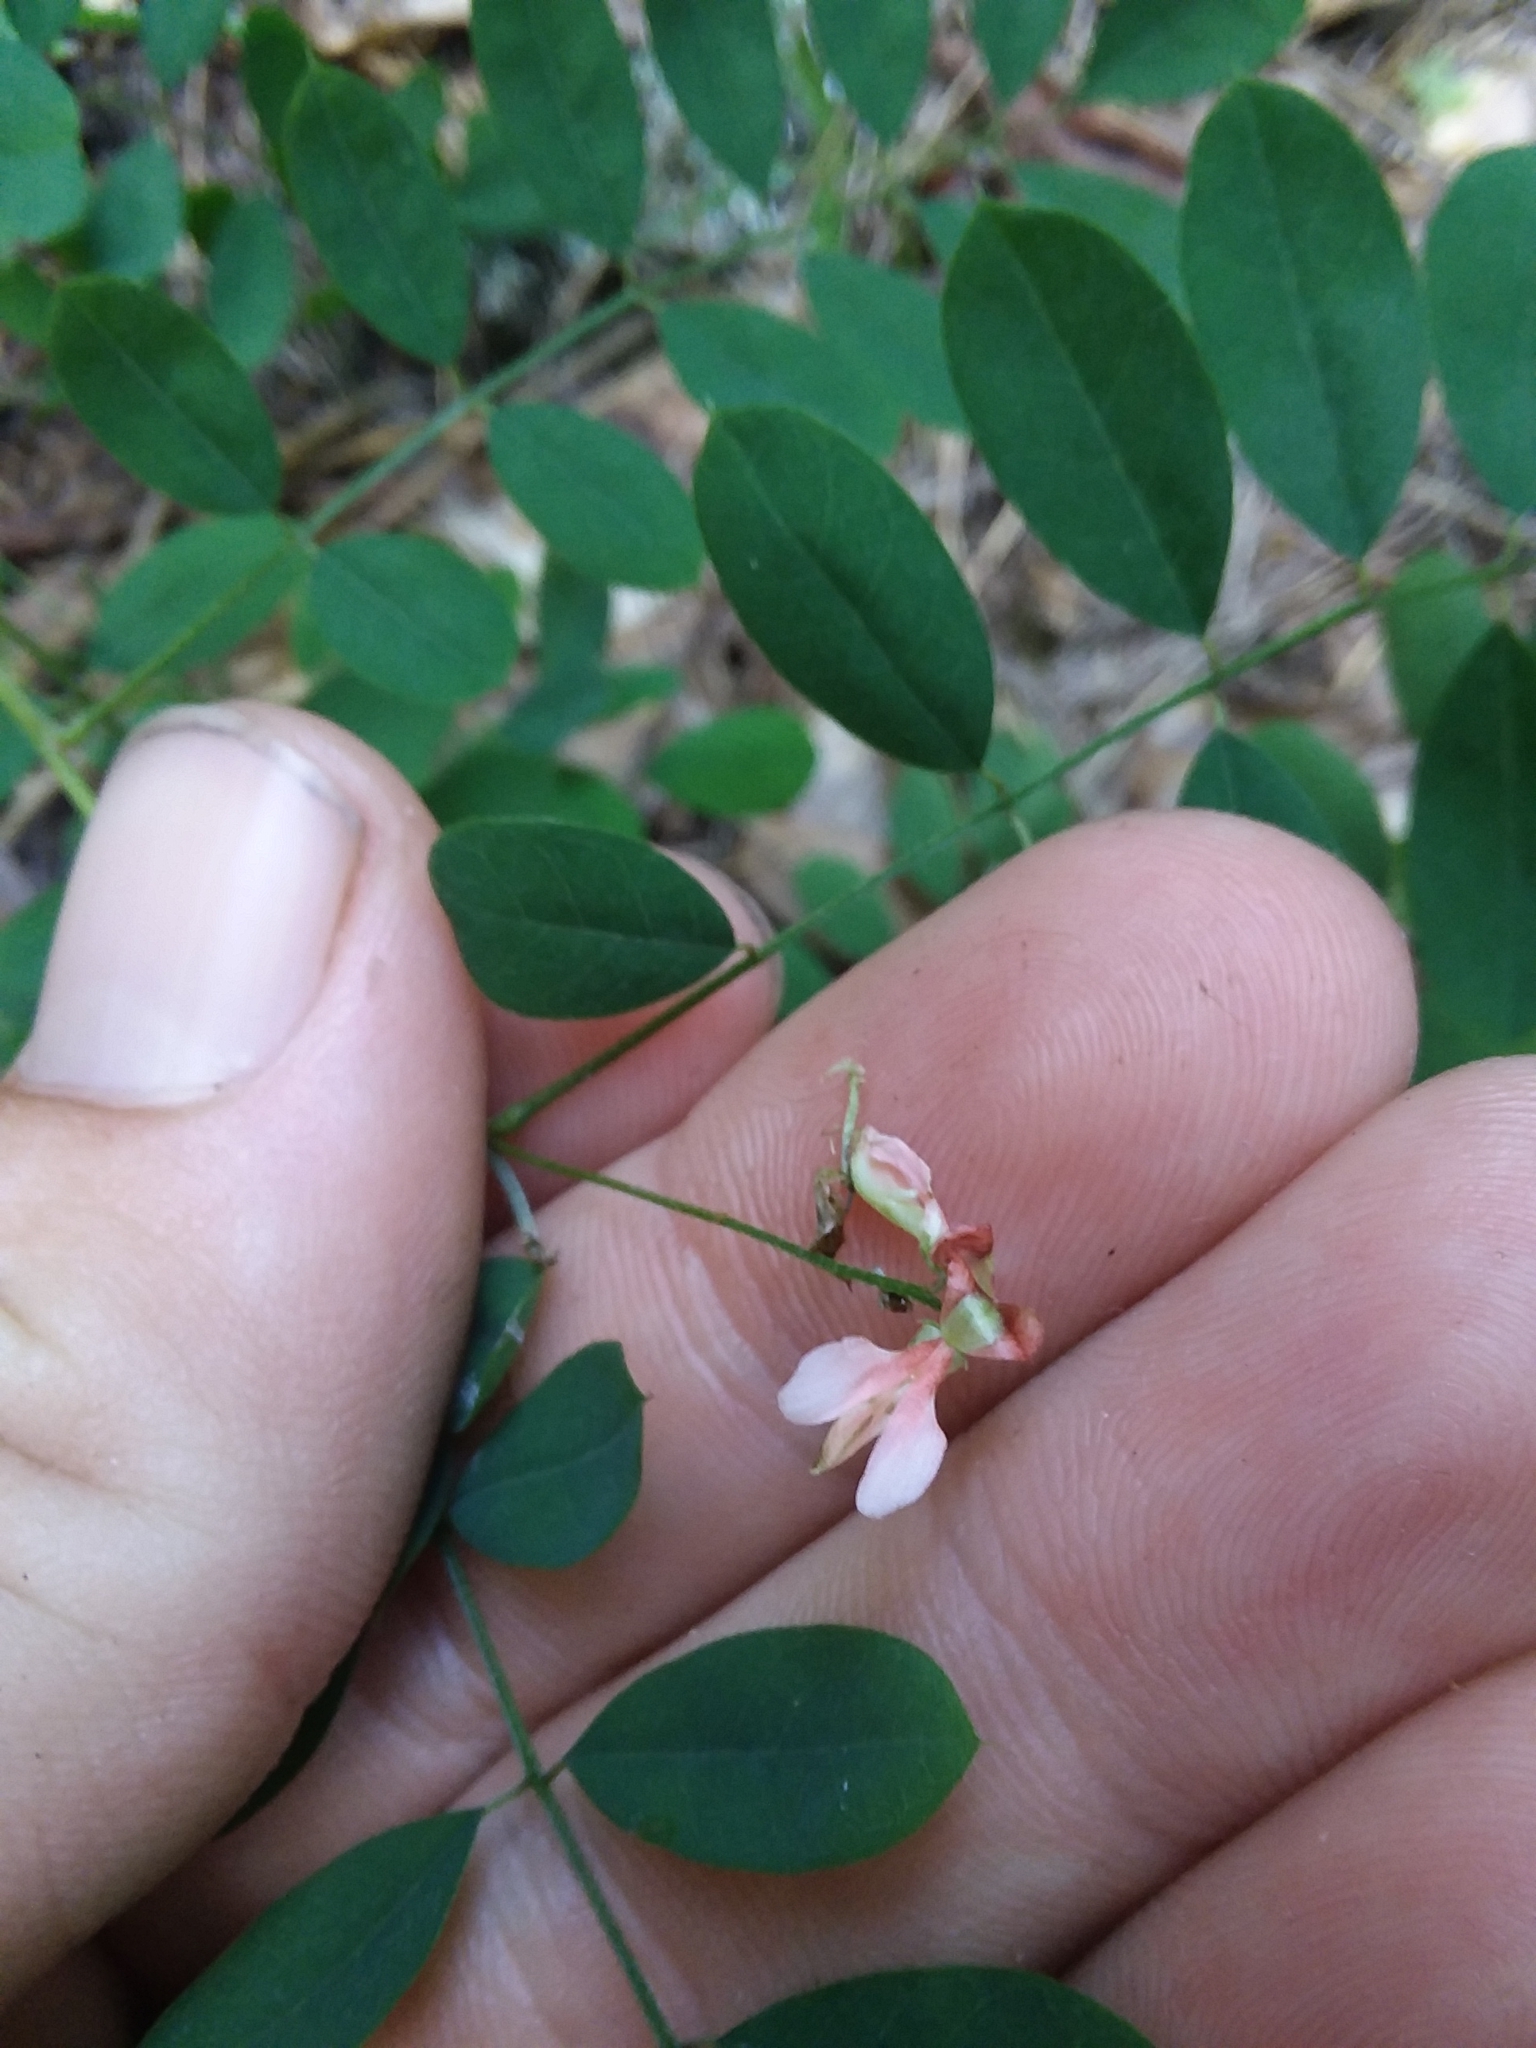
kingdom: Plantae
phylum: Tracheophyta
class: Magnoliopsida
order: Fabales
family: Fabaceae
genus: Indigofera
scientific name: Indigofera caroliniana
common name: Wild indigo
